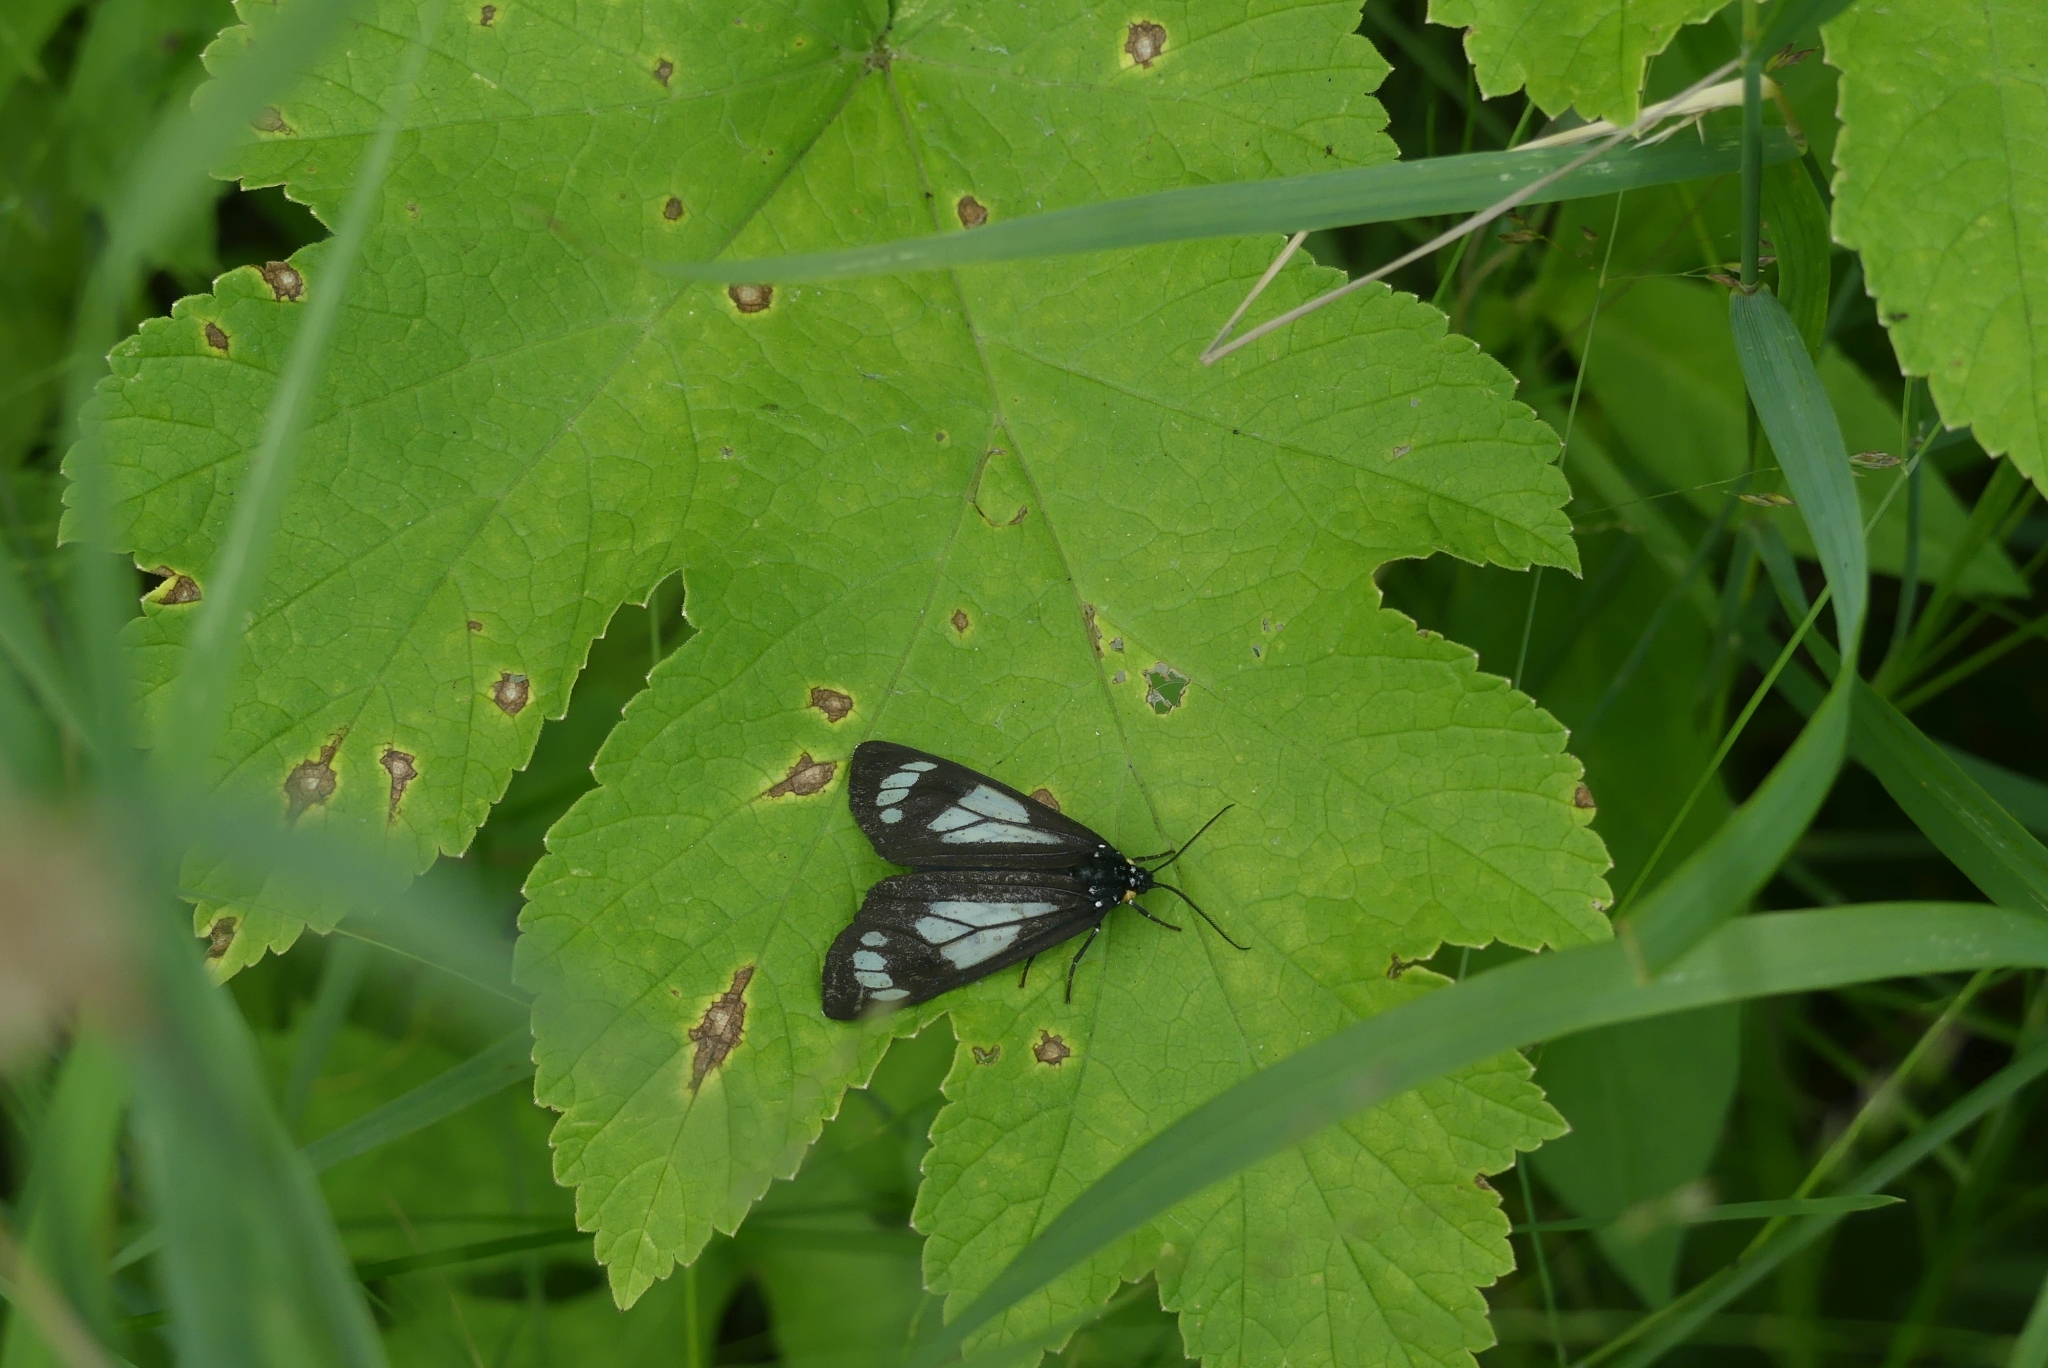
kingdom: Animalia
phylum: Arthropoda
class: Insecta
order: Lepidoptera
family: Erebidae
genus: Gnophaela
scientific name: Gnophaela vermiculata
